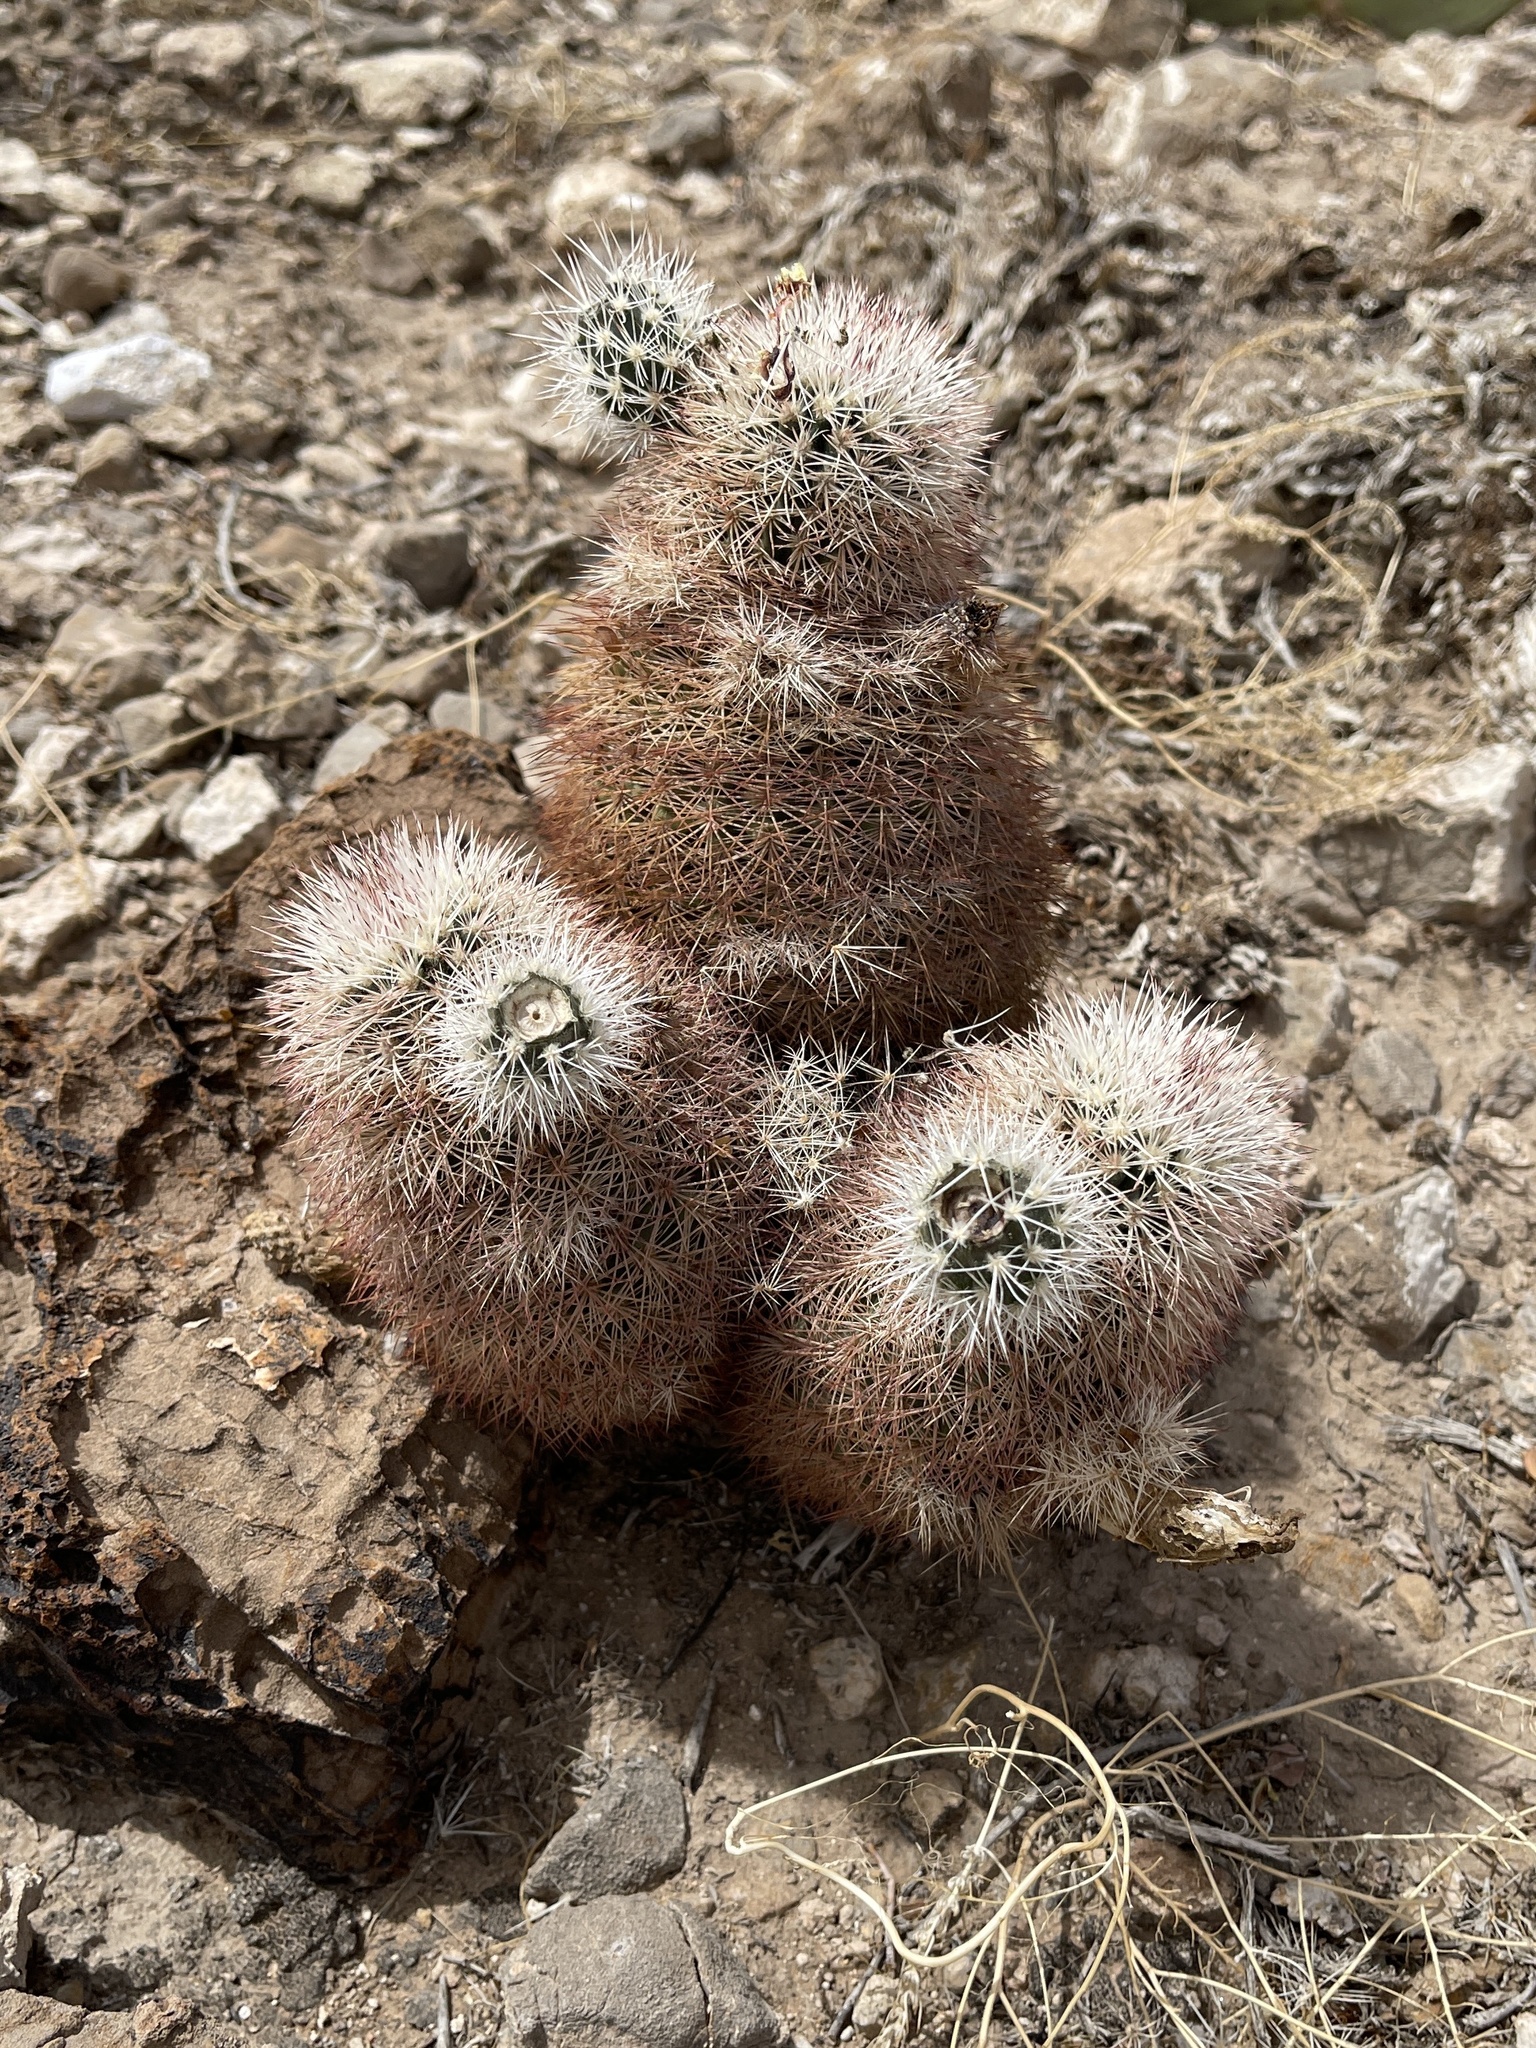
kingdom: Plantae
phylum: Tracheophyta
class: Magnoliopsida
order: Caryophyllales
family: Cactaceae
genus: Echinocereus
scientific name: Echinocereus dasyacanthus
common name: Spiny hedgehog cactus
